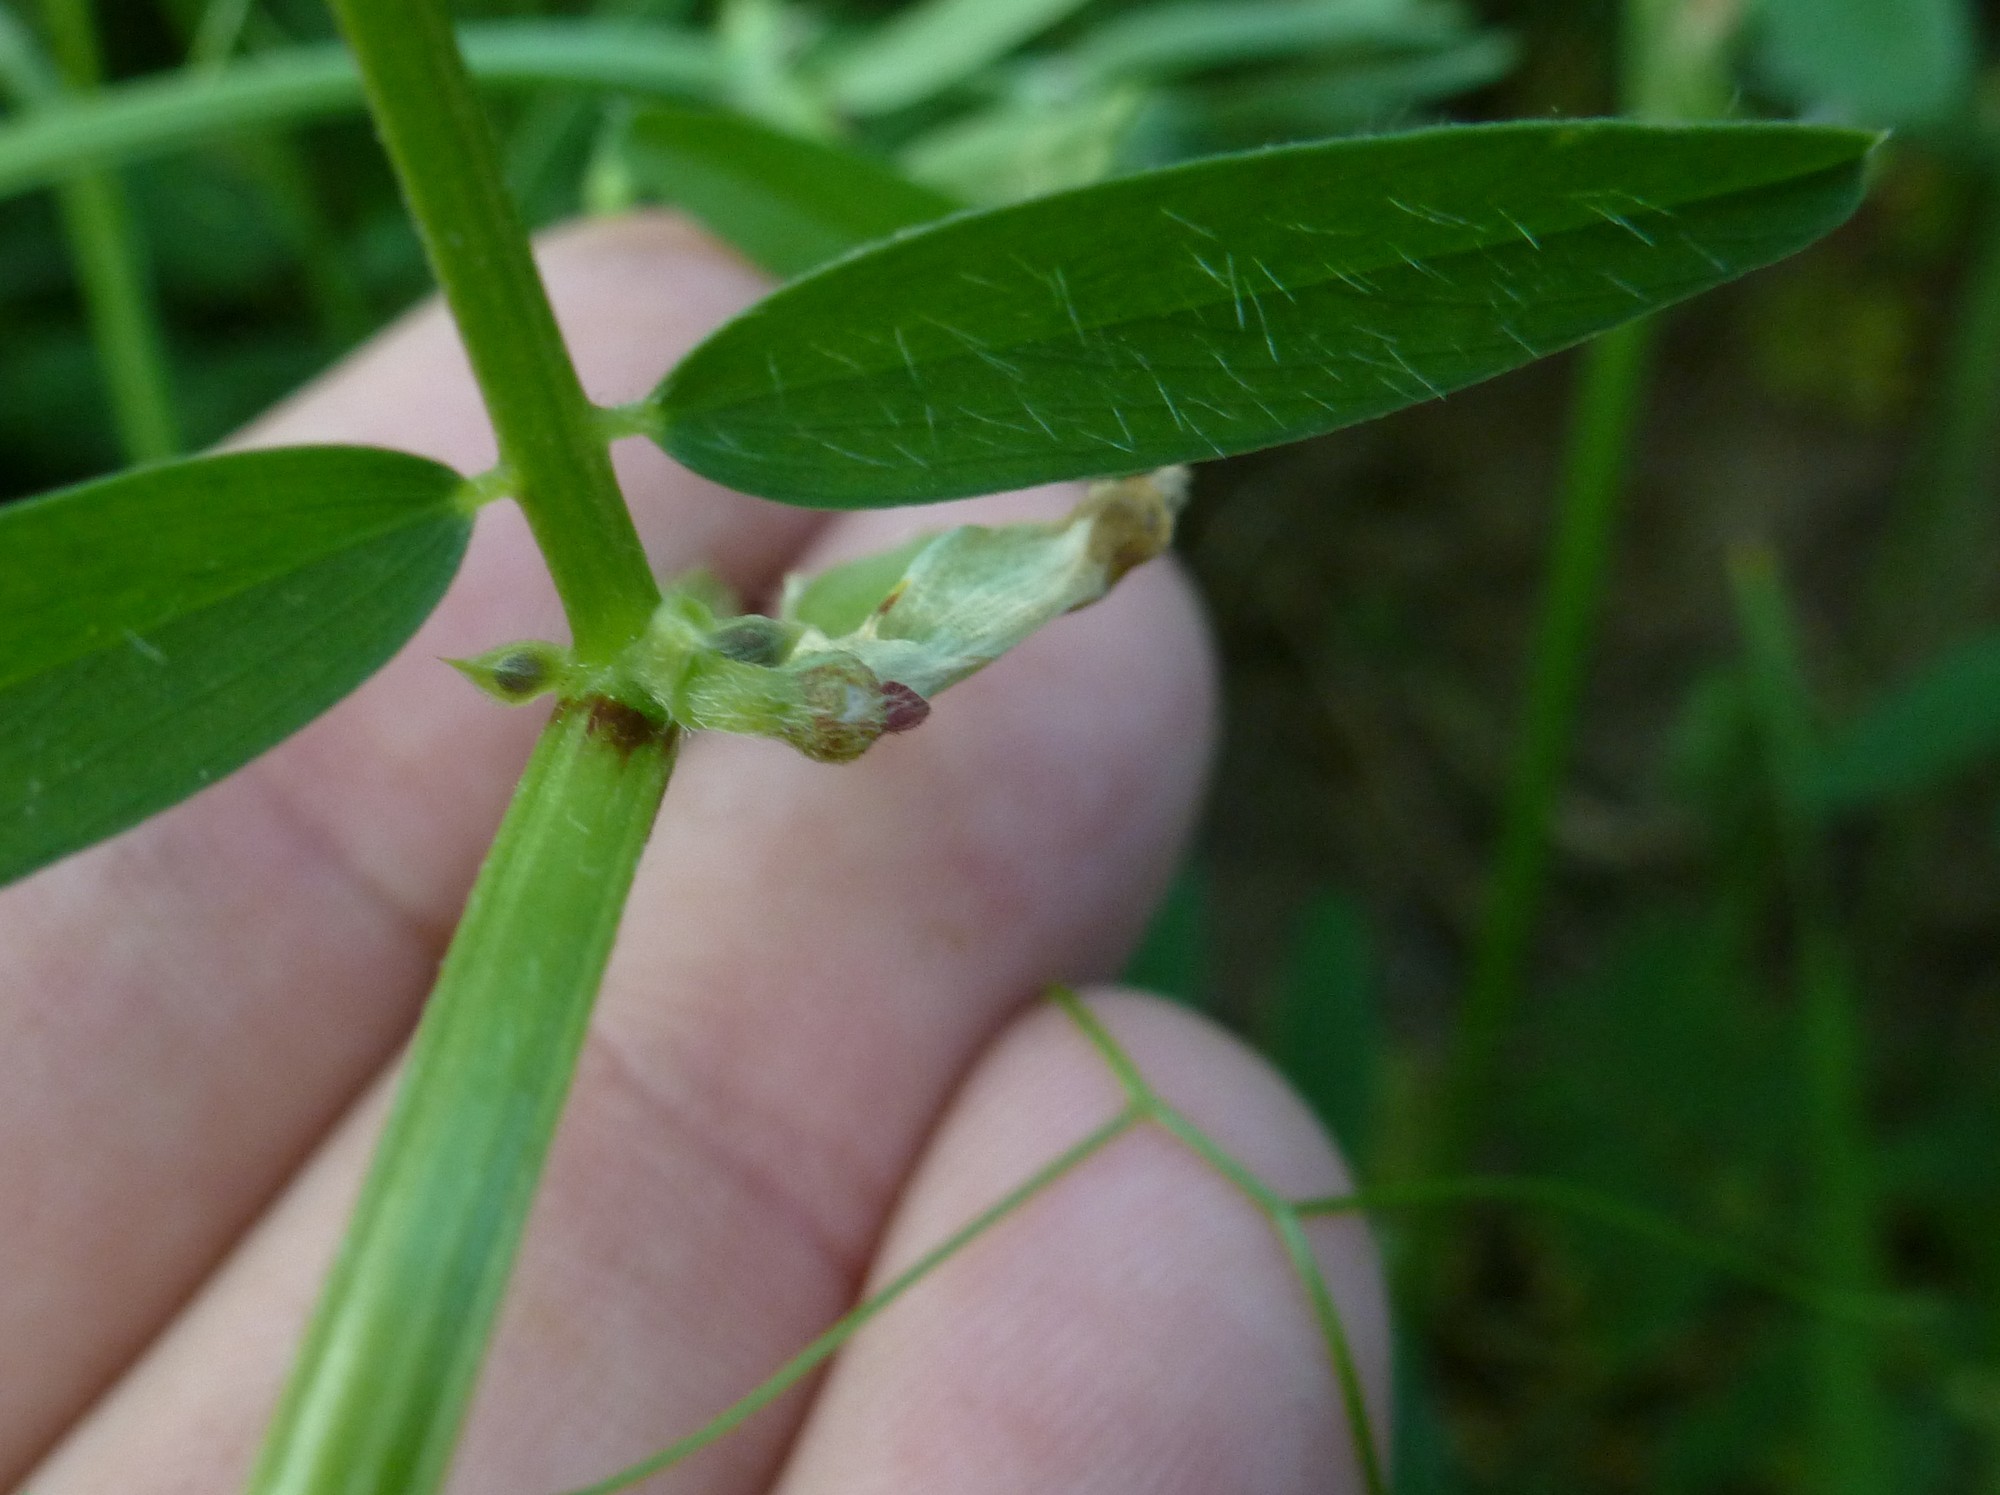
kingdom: Plantae
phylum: Tracheophyta
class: Magnoliopsida
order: Fabales
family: Fabaceae
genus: Vicia
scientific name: Vicia ciliatula
